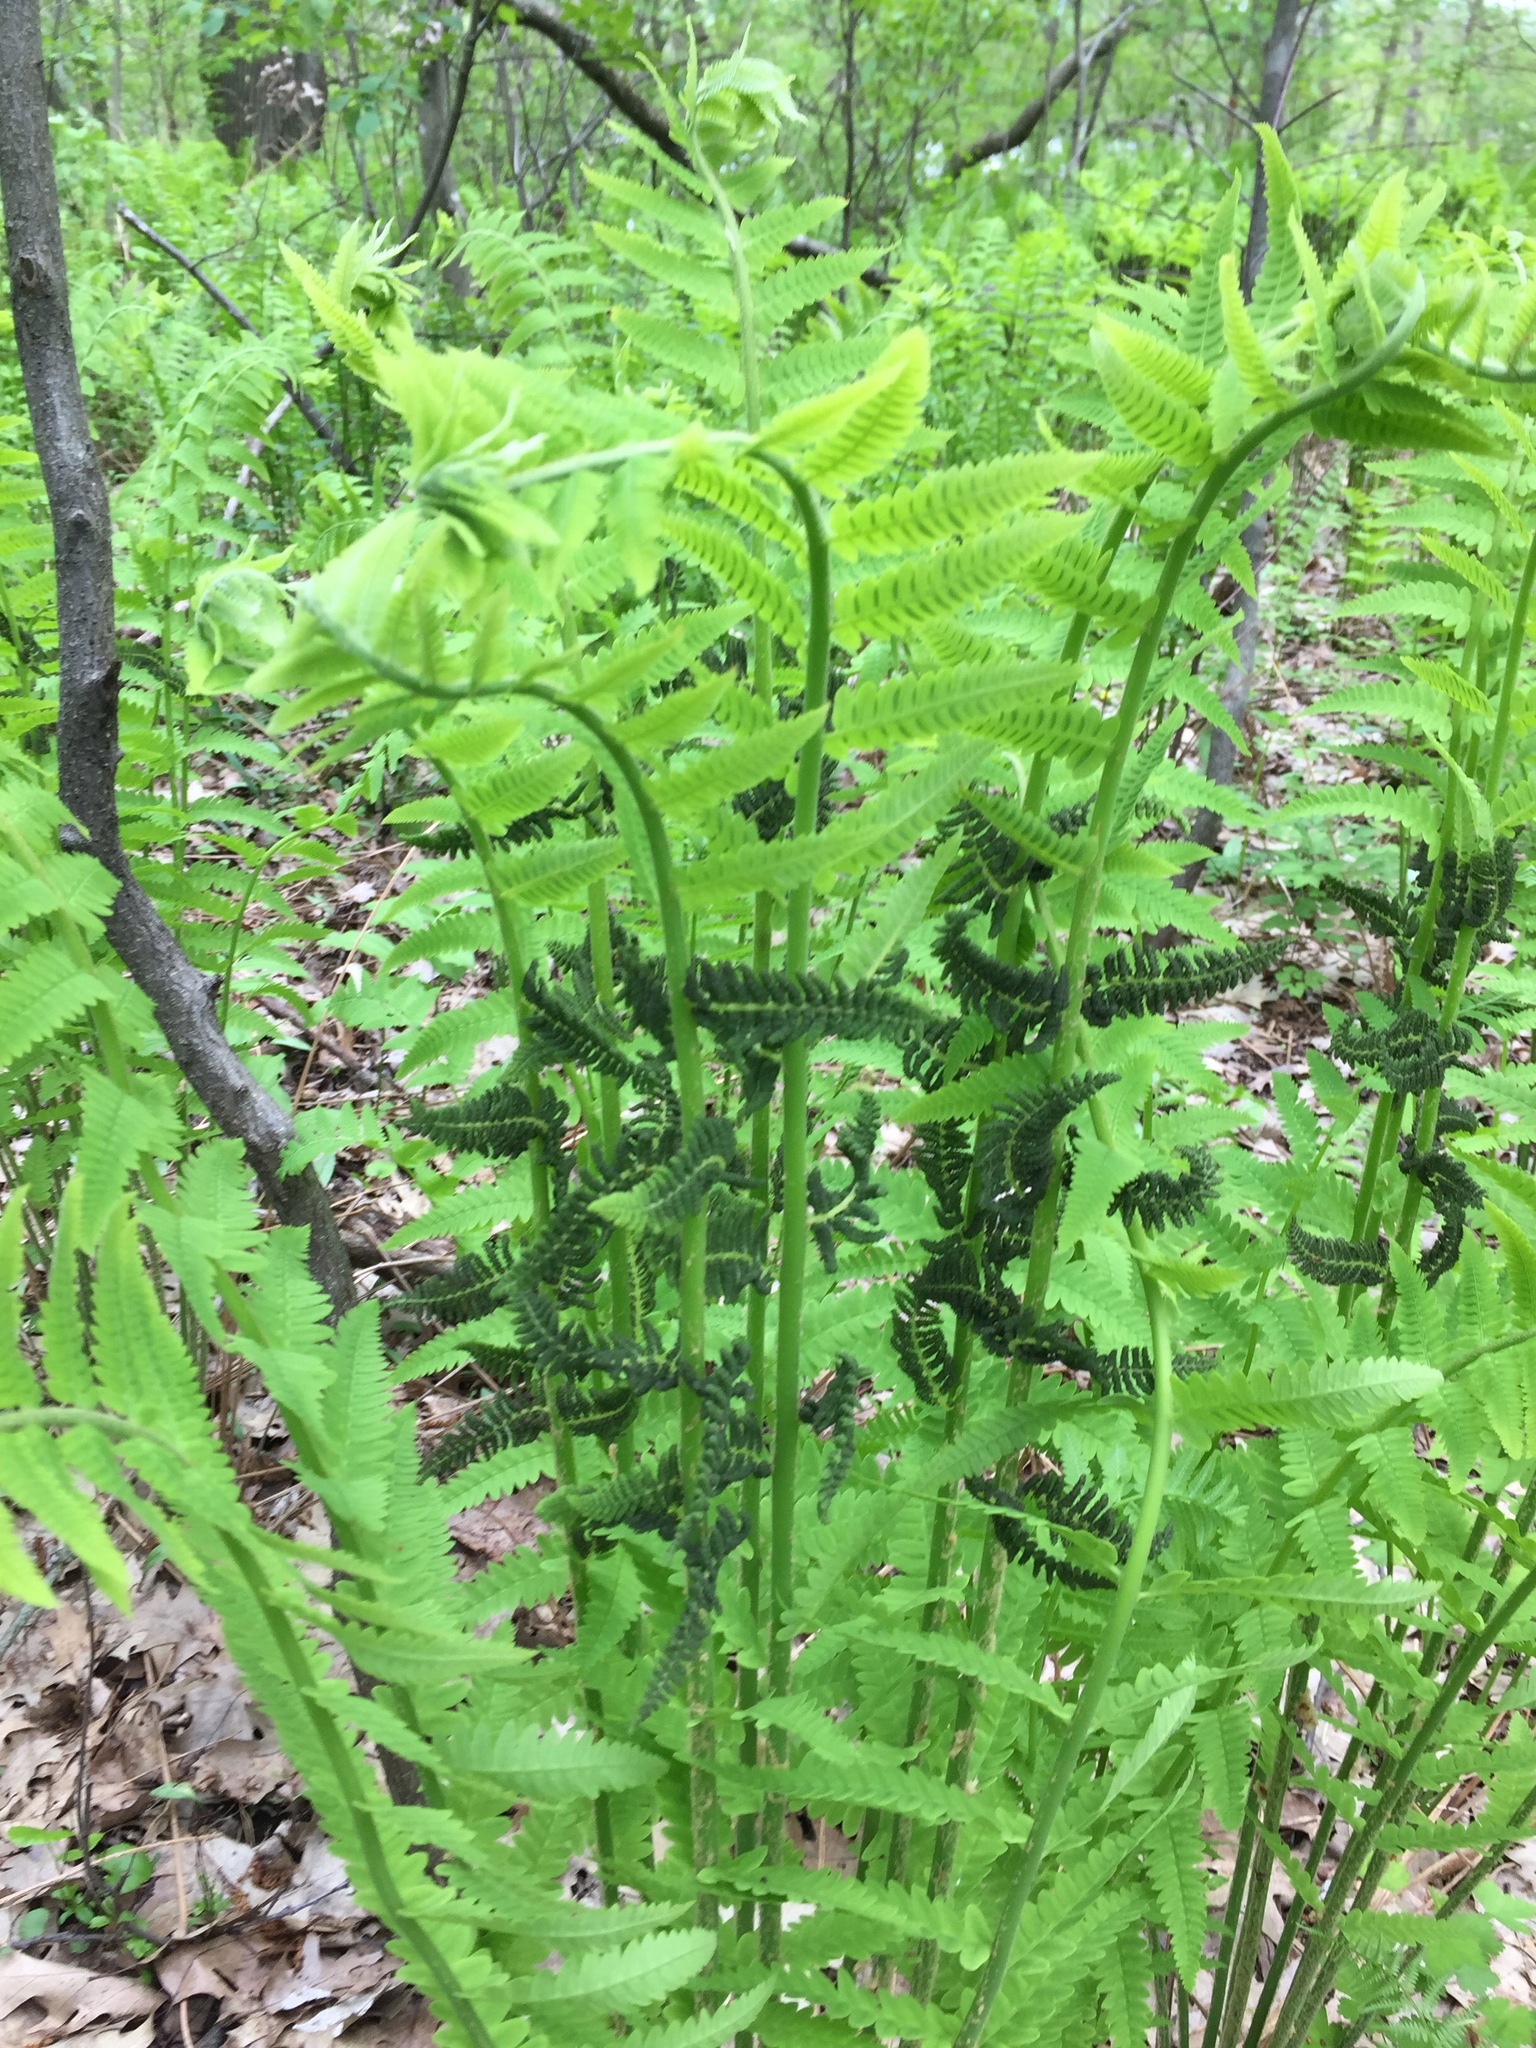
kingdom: Plantae
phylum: Tracheophyta
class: Polypodiopsida
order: Osmundales
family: Osmundaceae
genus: Claytosmunda
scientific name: Claytosmunda claytoniana
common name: Clayton's fern
